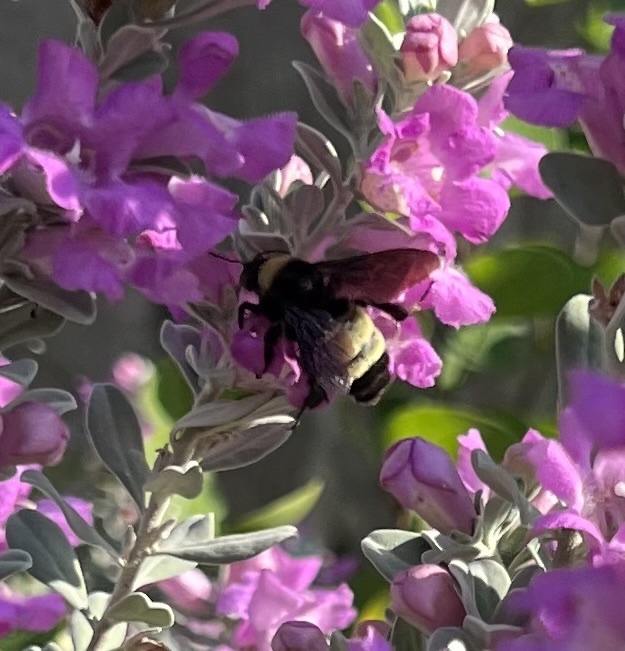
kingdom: Animalia
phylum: Arthropoda
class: Insecta
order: Hymenoptera
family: Apidae
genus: Bombus
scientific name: Bombus pensylvanicus
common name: Bumble bee
